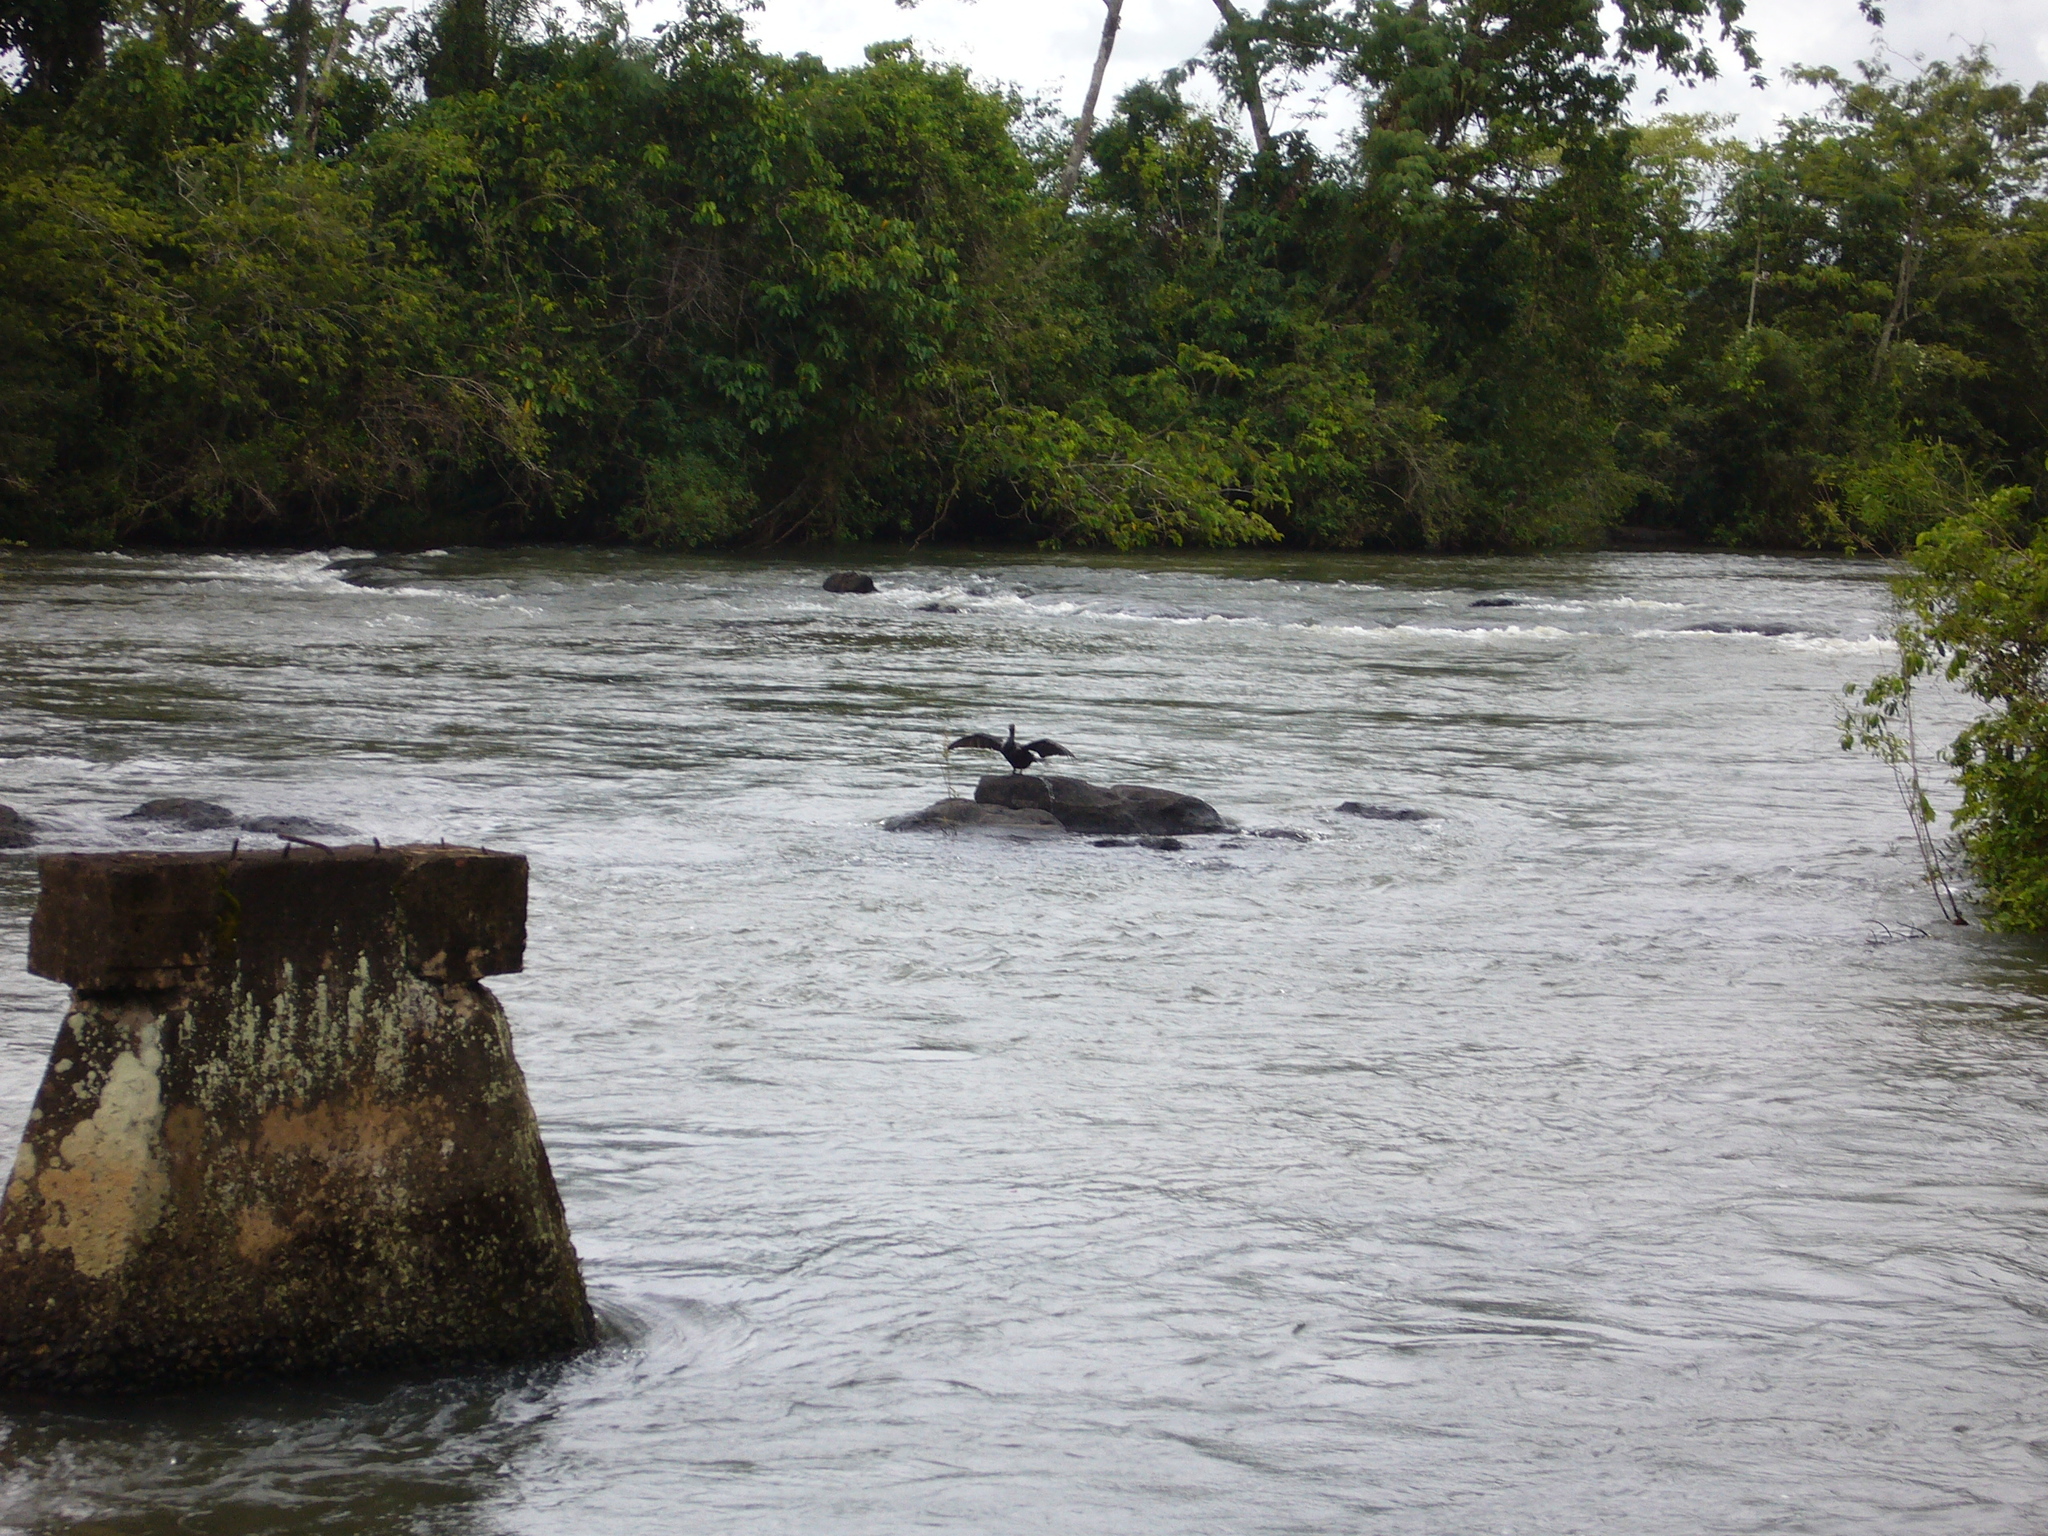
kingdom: Animalia
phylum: Chordata
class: Aves
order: Suliformes
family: Phalacrocoracidae
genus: Phalacrocorax
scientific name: Phalacrocorax brasilianus
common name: Neotropic cormorant
